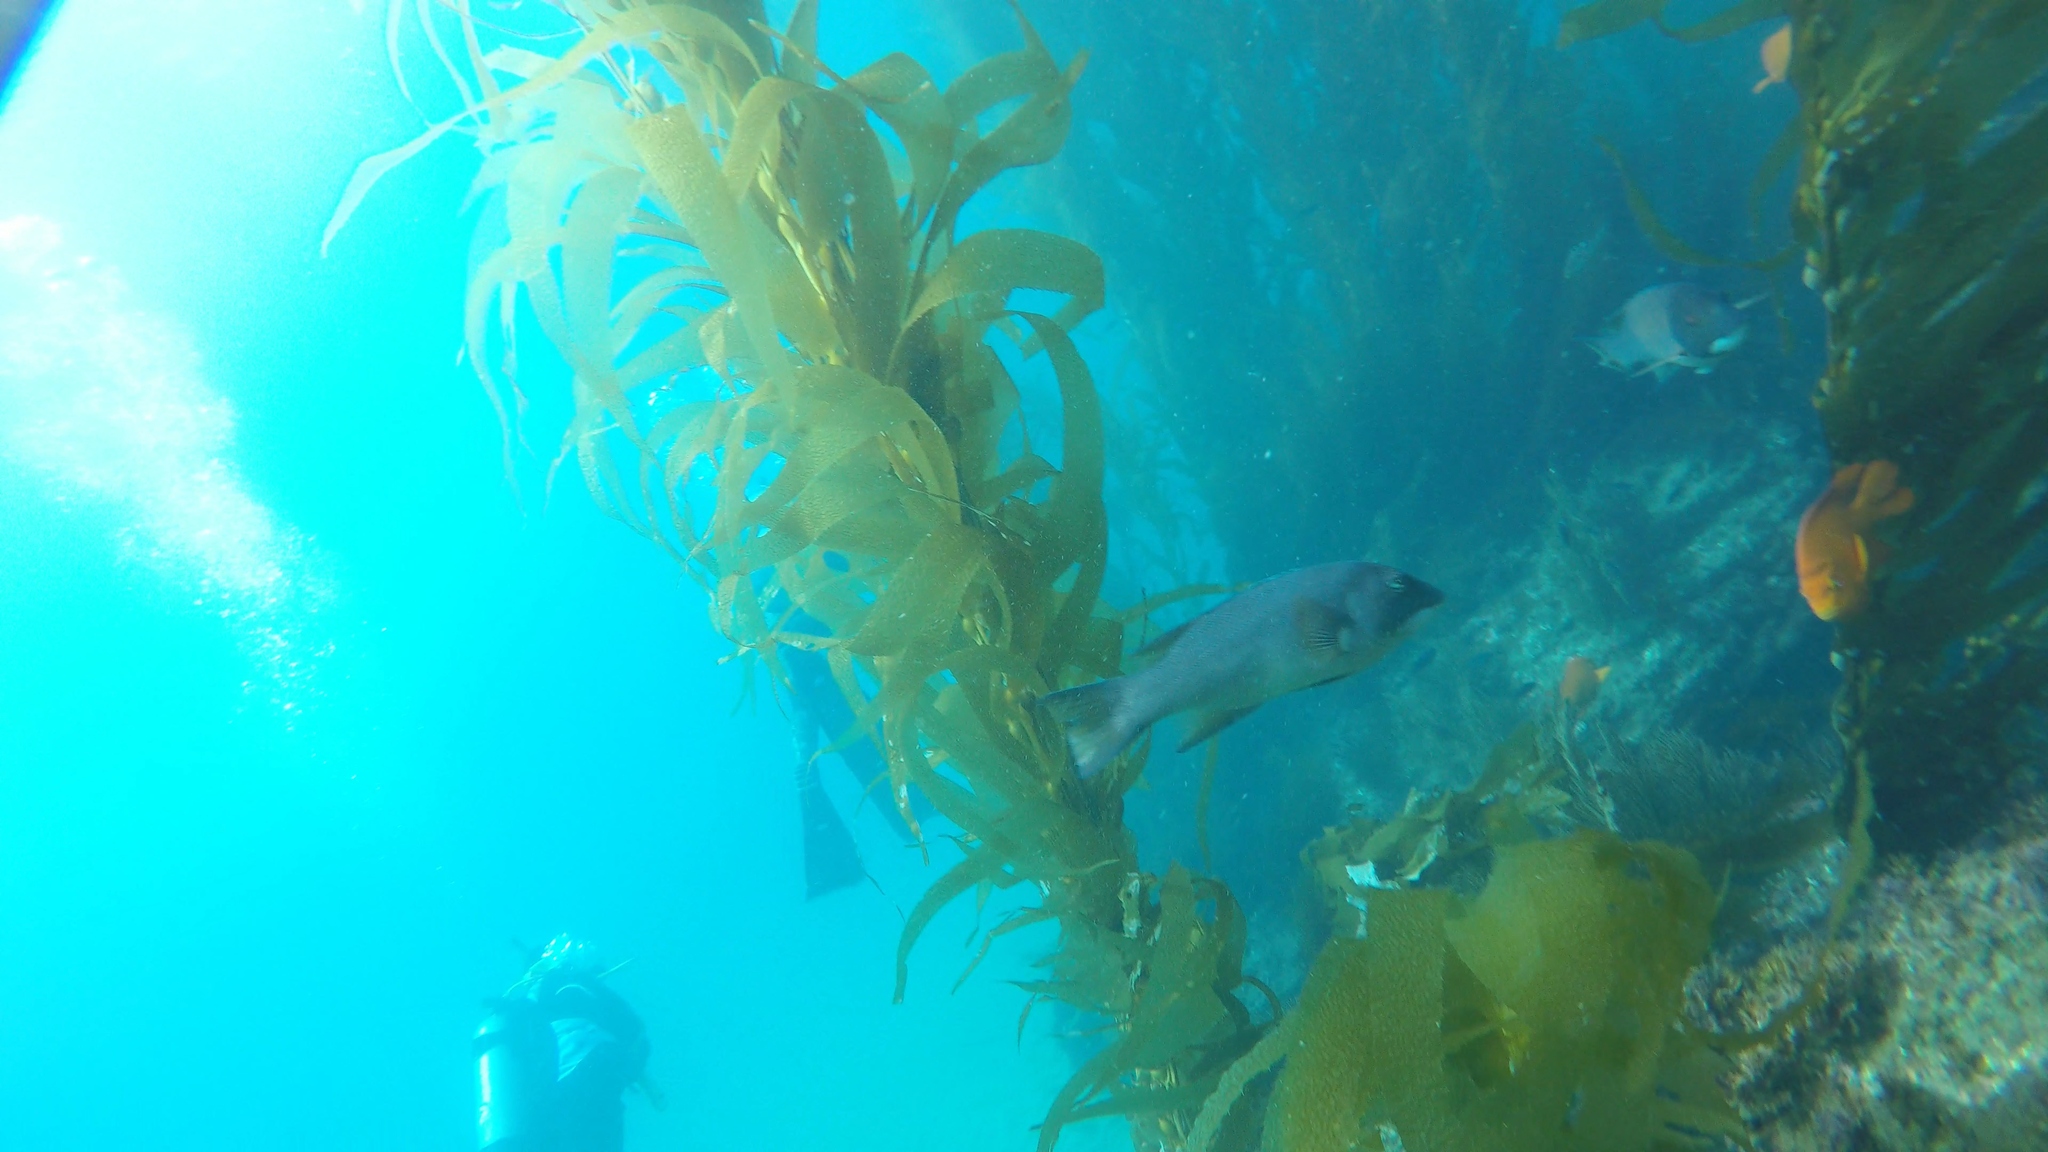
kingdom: Animalia
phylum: Chordata
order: Perciformes
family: Labridae
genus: Semicossyphus
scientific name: Semicossyphus pulcher
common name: California sheephead
